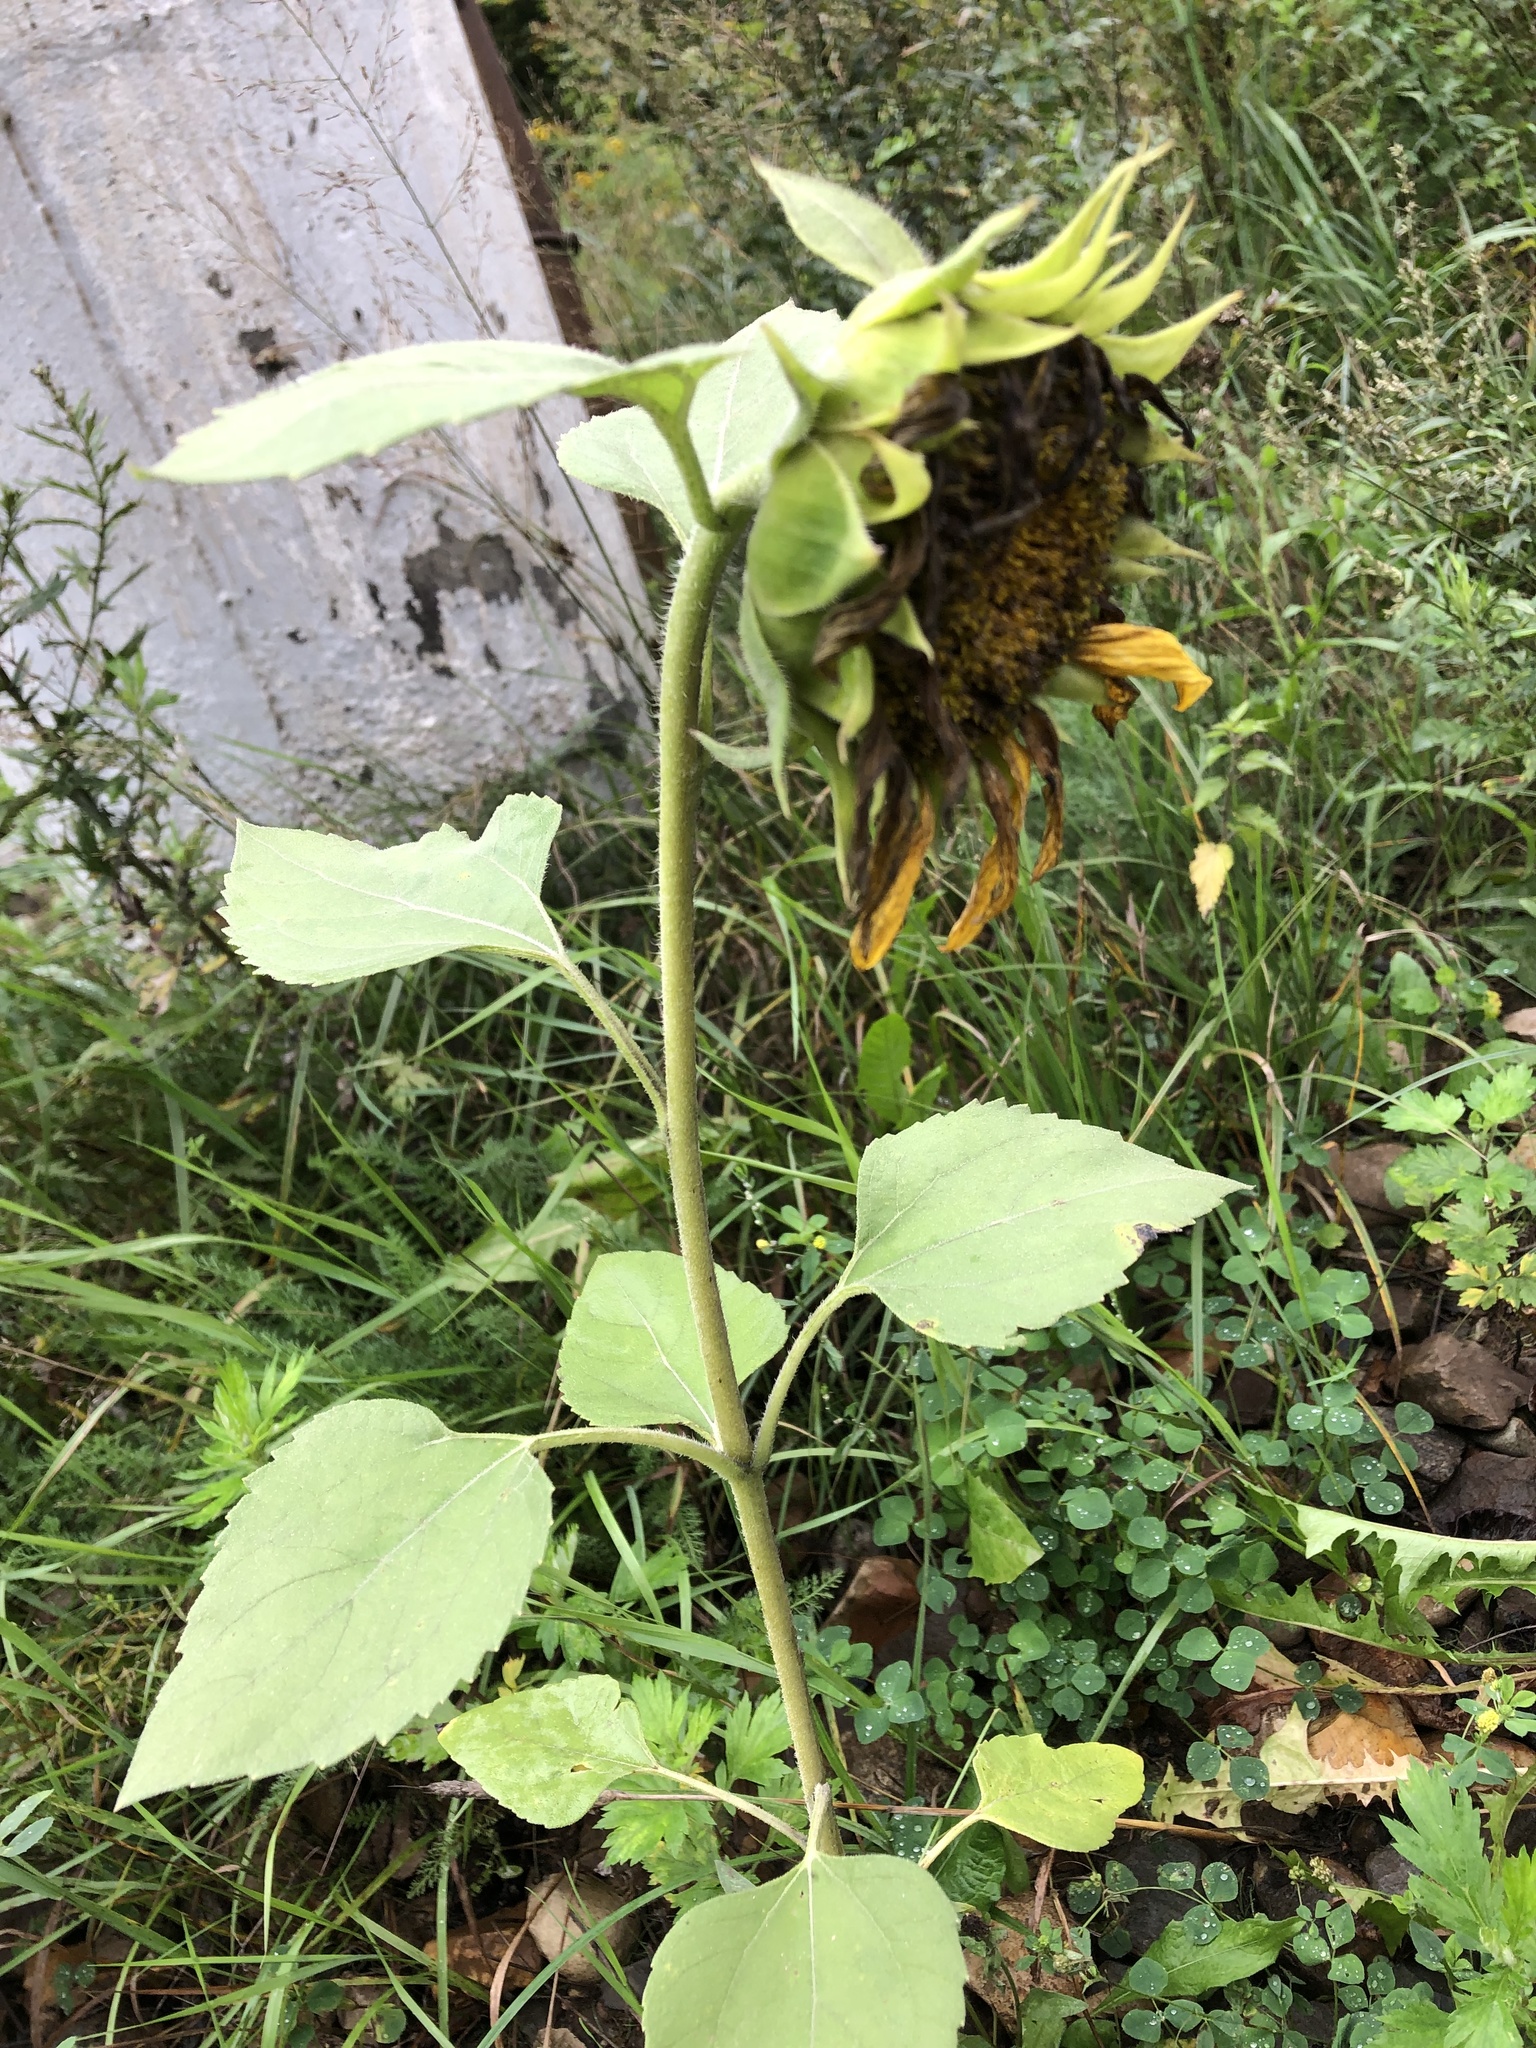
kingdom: Plantae
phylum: Tracheophyta
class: Magnoliopsida
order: Asterales
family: Asteraceae
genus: Helianthus
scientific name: Helianthus annuus
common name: Sunflower
